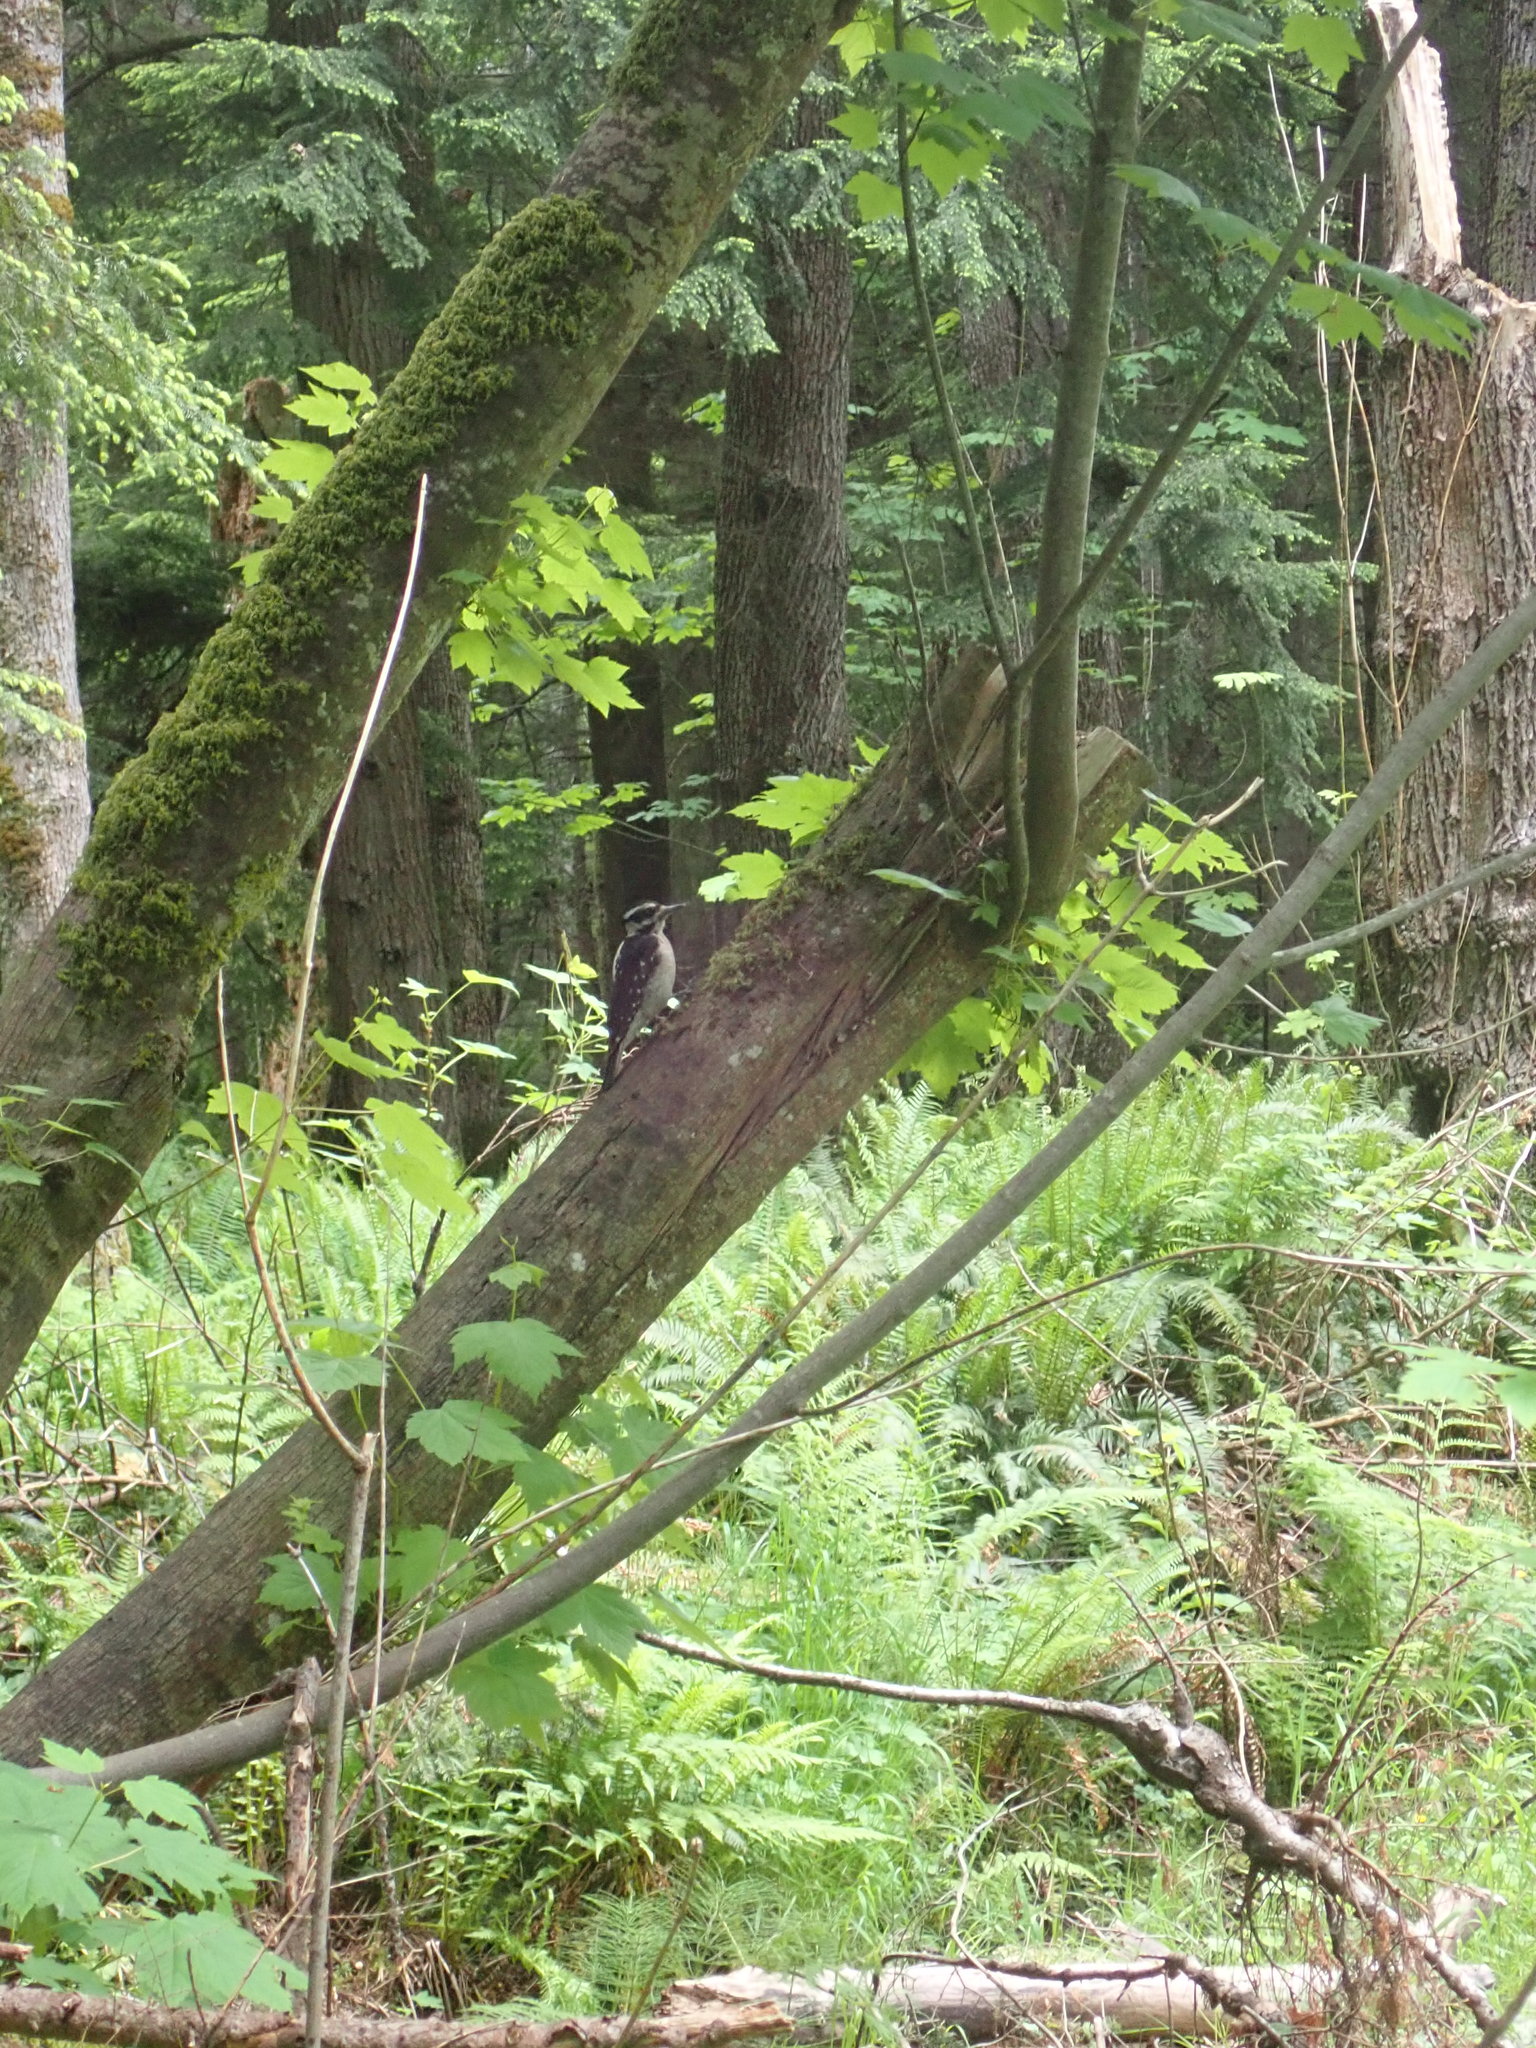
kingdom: Animalia
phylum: Chordata
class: Aves
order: Piciformes
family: Picidae
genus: Leuconotopicus
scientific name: Leuconotopicus villosus
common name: Hairy woodpecker
